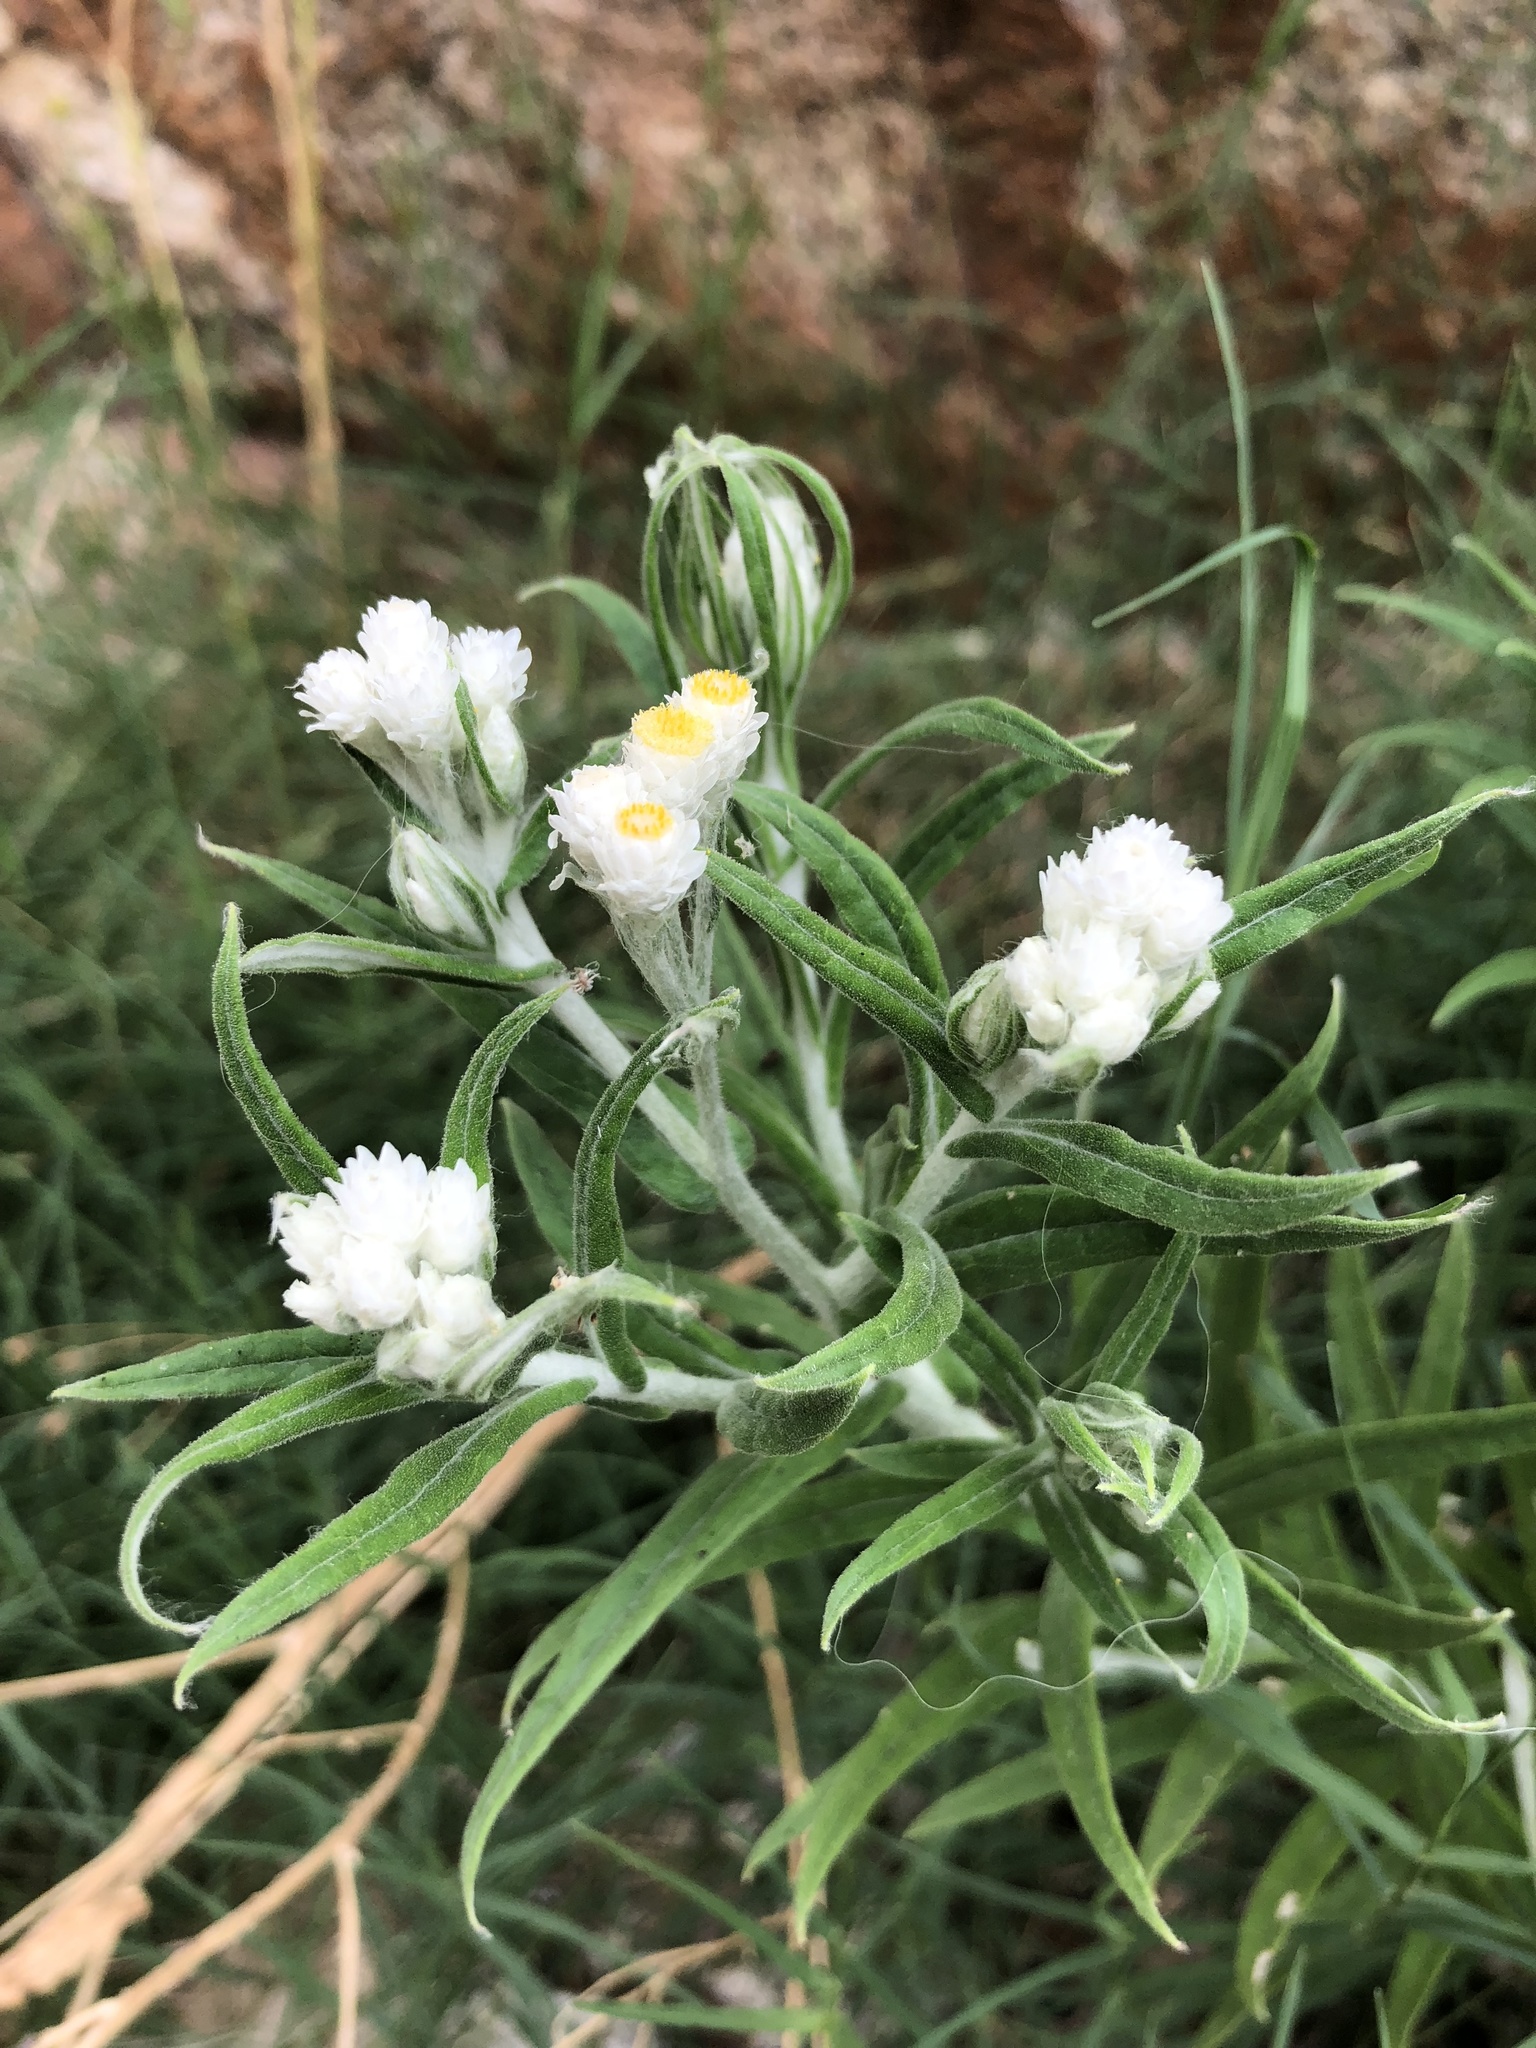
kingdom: Plantae
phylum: Tracheophyta
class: Magnoliopsida
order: Asterales
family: Asteraceae
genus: Pseudognaphalium
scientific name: Pseudognaphalium leucocephalum
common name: White cudweed
